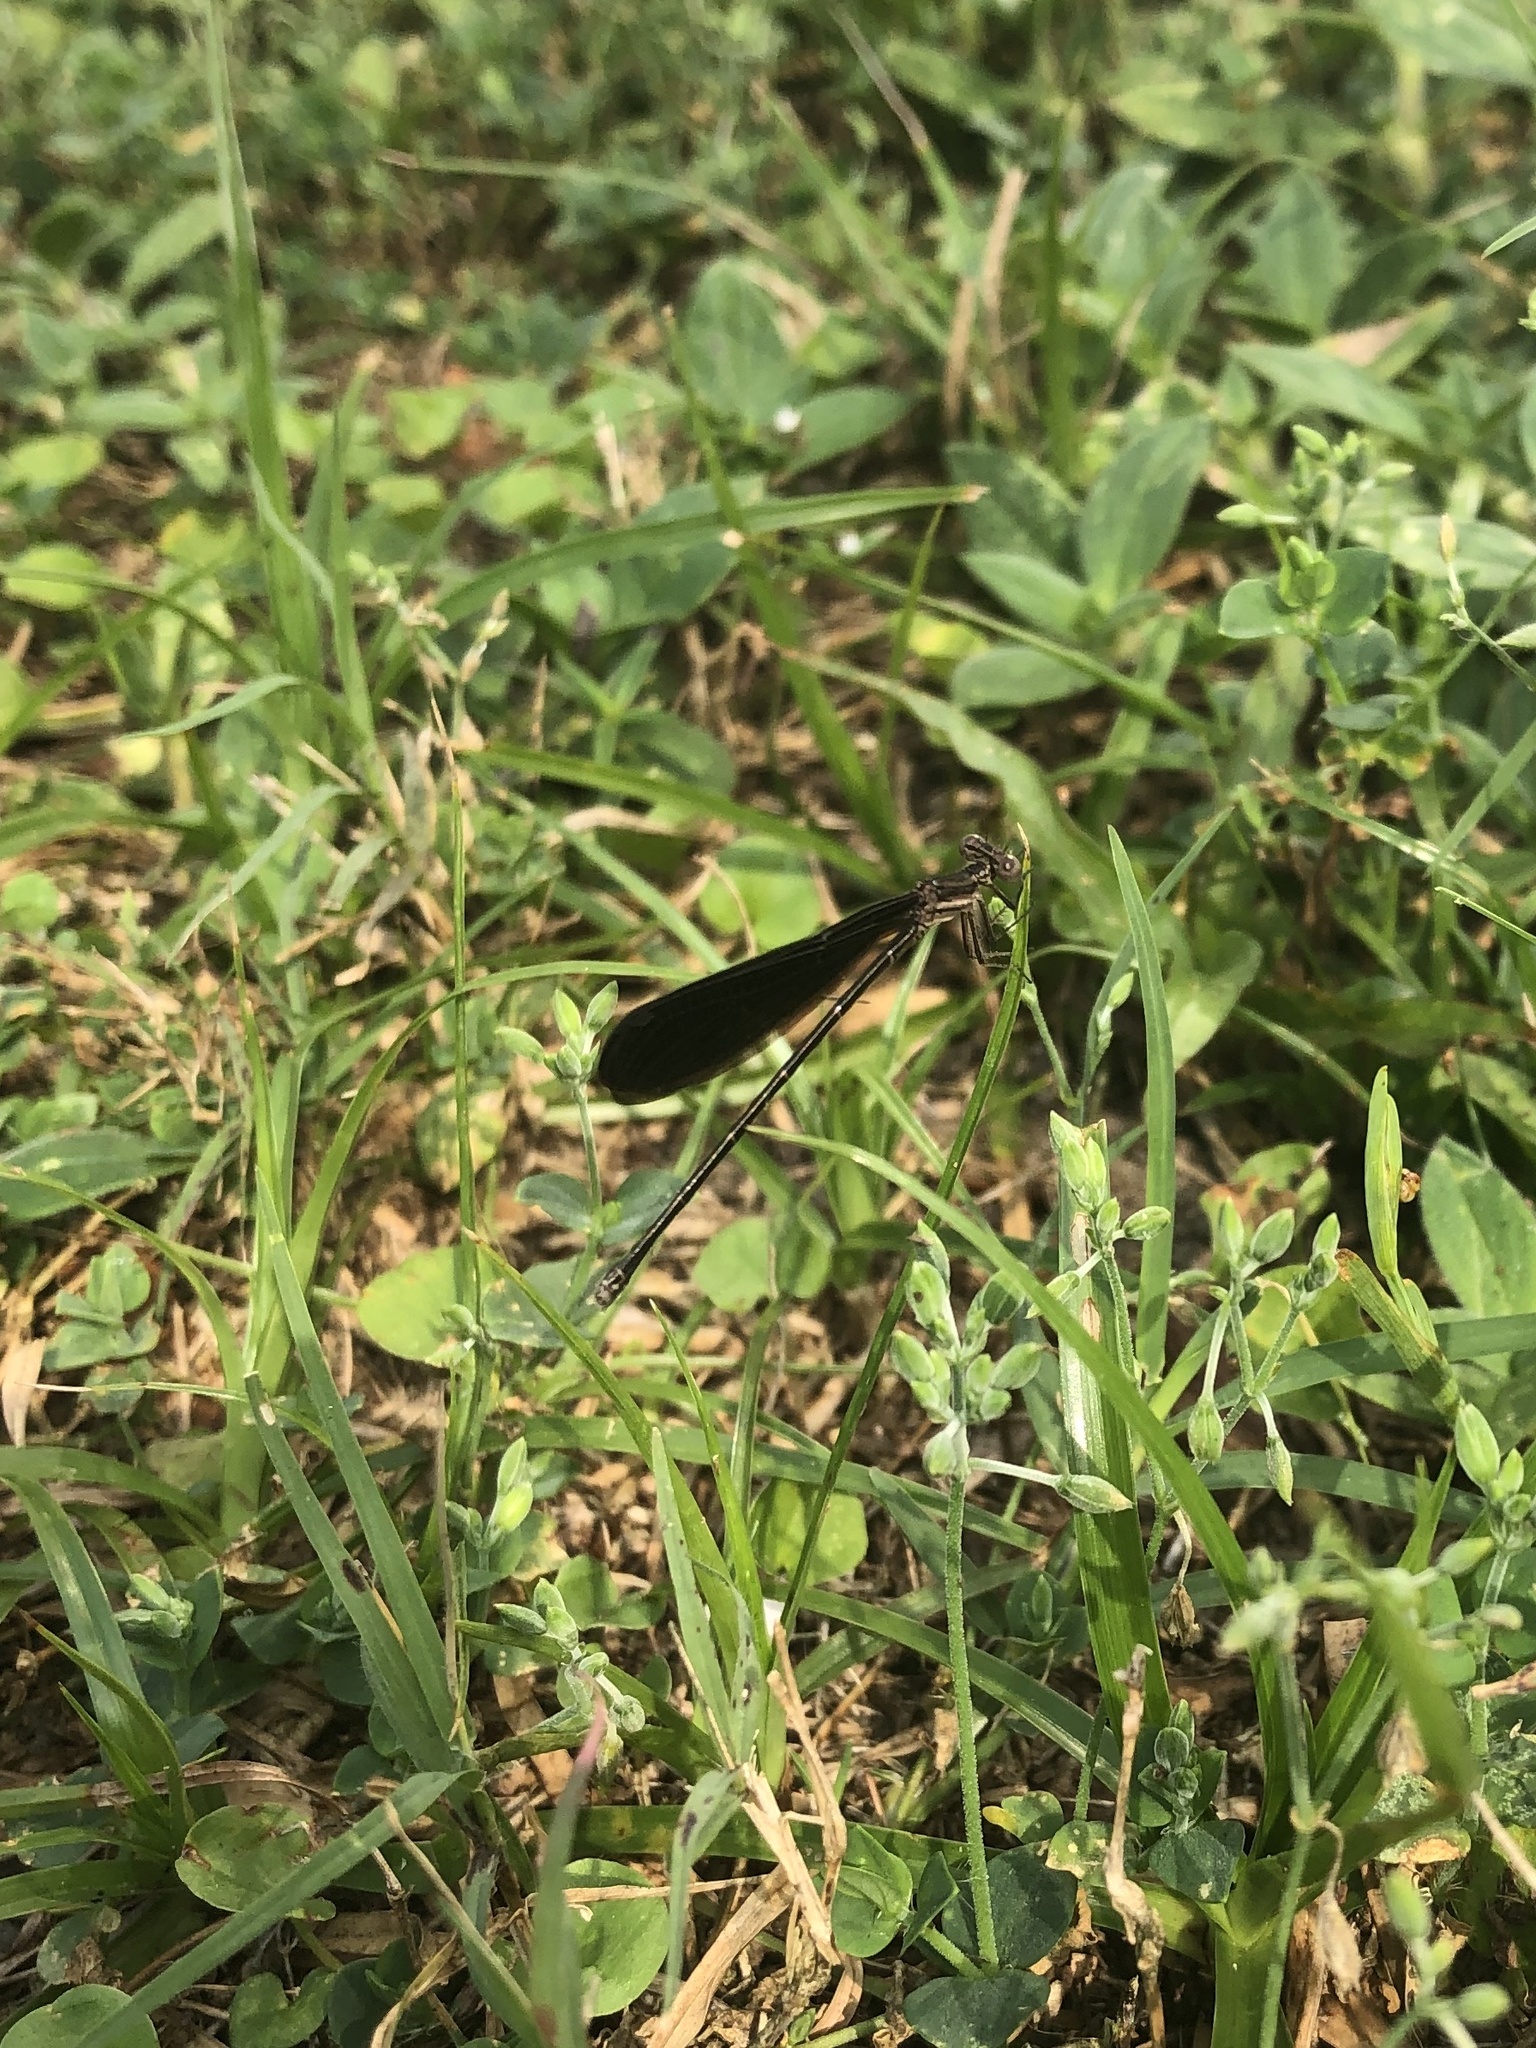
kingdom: Animalia
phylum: Arthropoda
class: Insecta
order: Odonata
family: Coenagrionidae
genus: Argia
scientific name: Argia fumipennis
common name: Variable dancer
